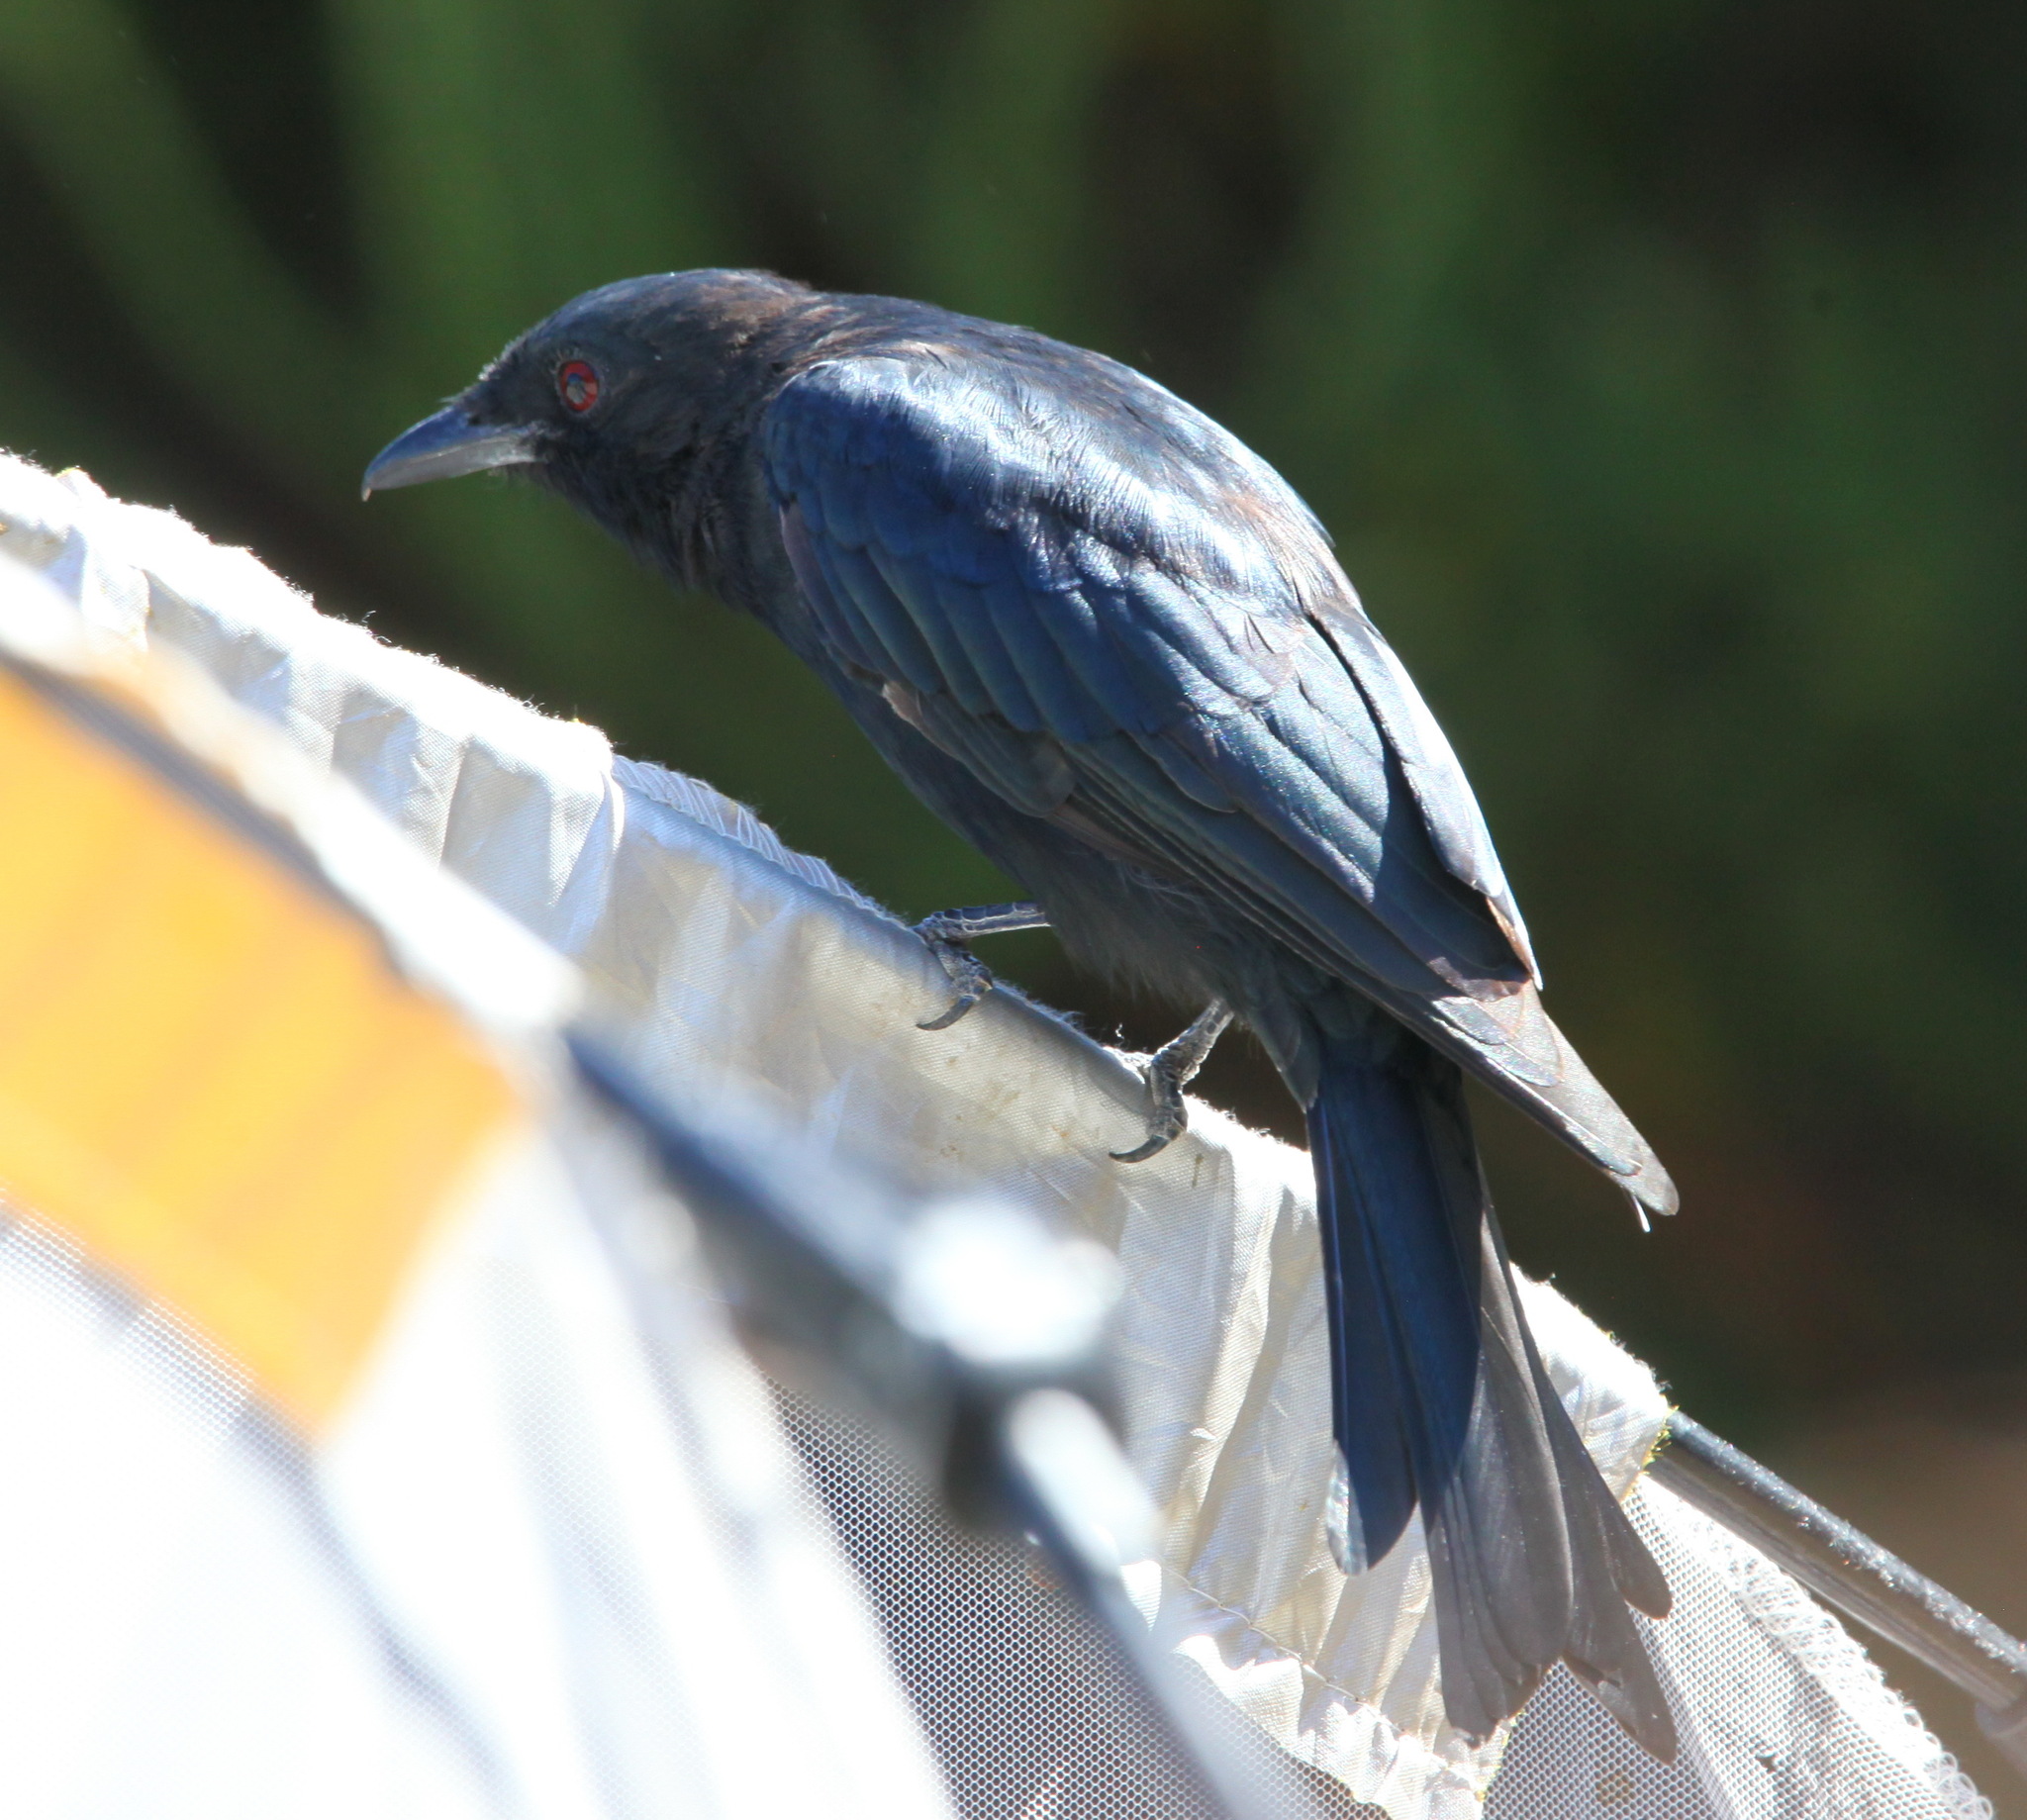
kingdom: Animalia
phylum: Chordata
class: Aves
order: Passeriformes
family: Dicruridae
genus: Dicrurus
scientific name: Dicrurus adsimilis
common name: Fork-tailed drongo
